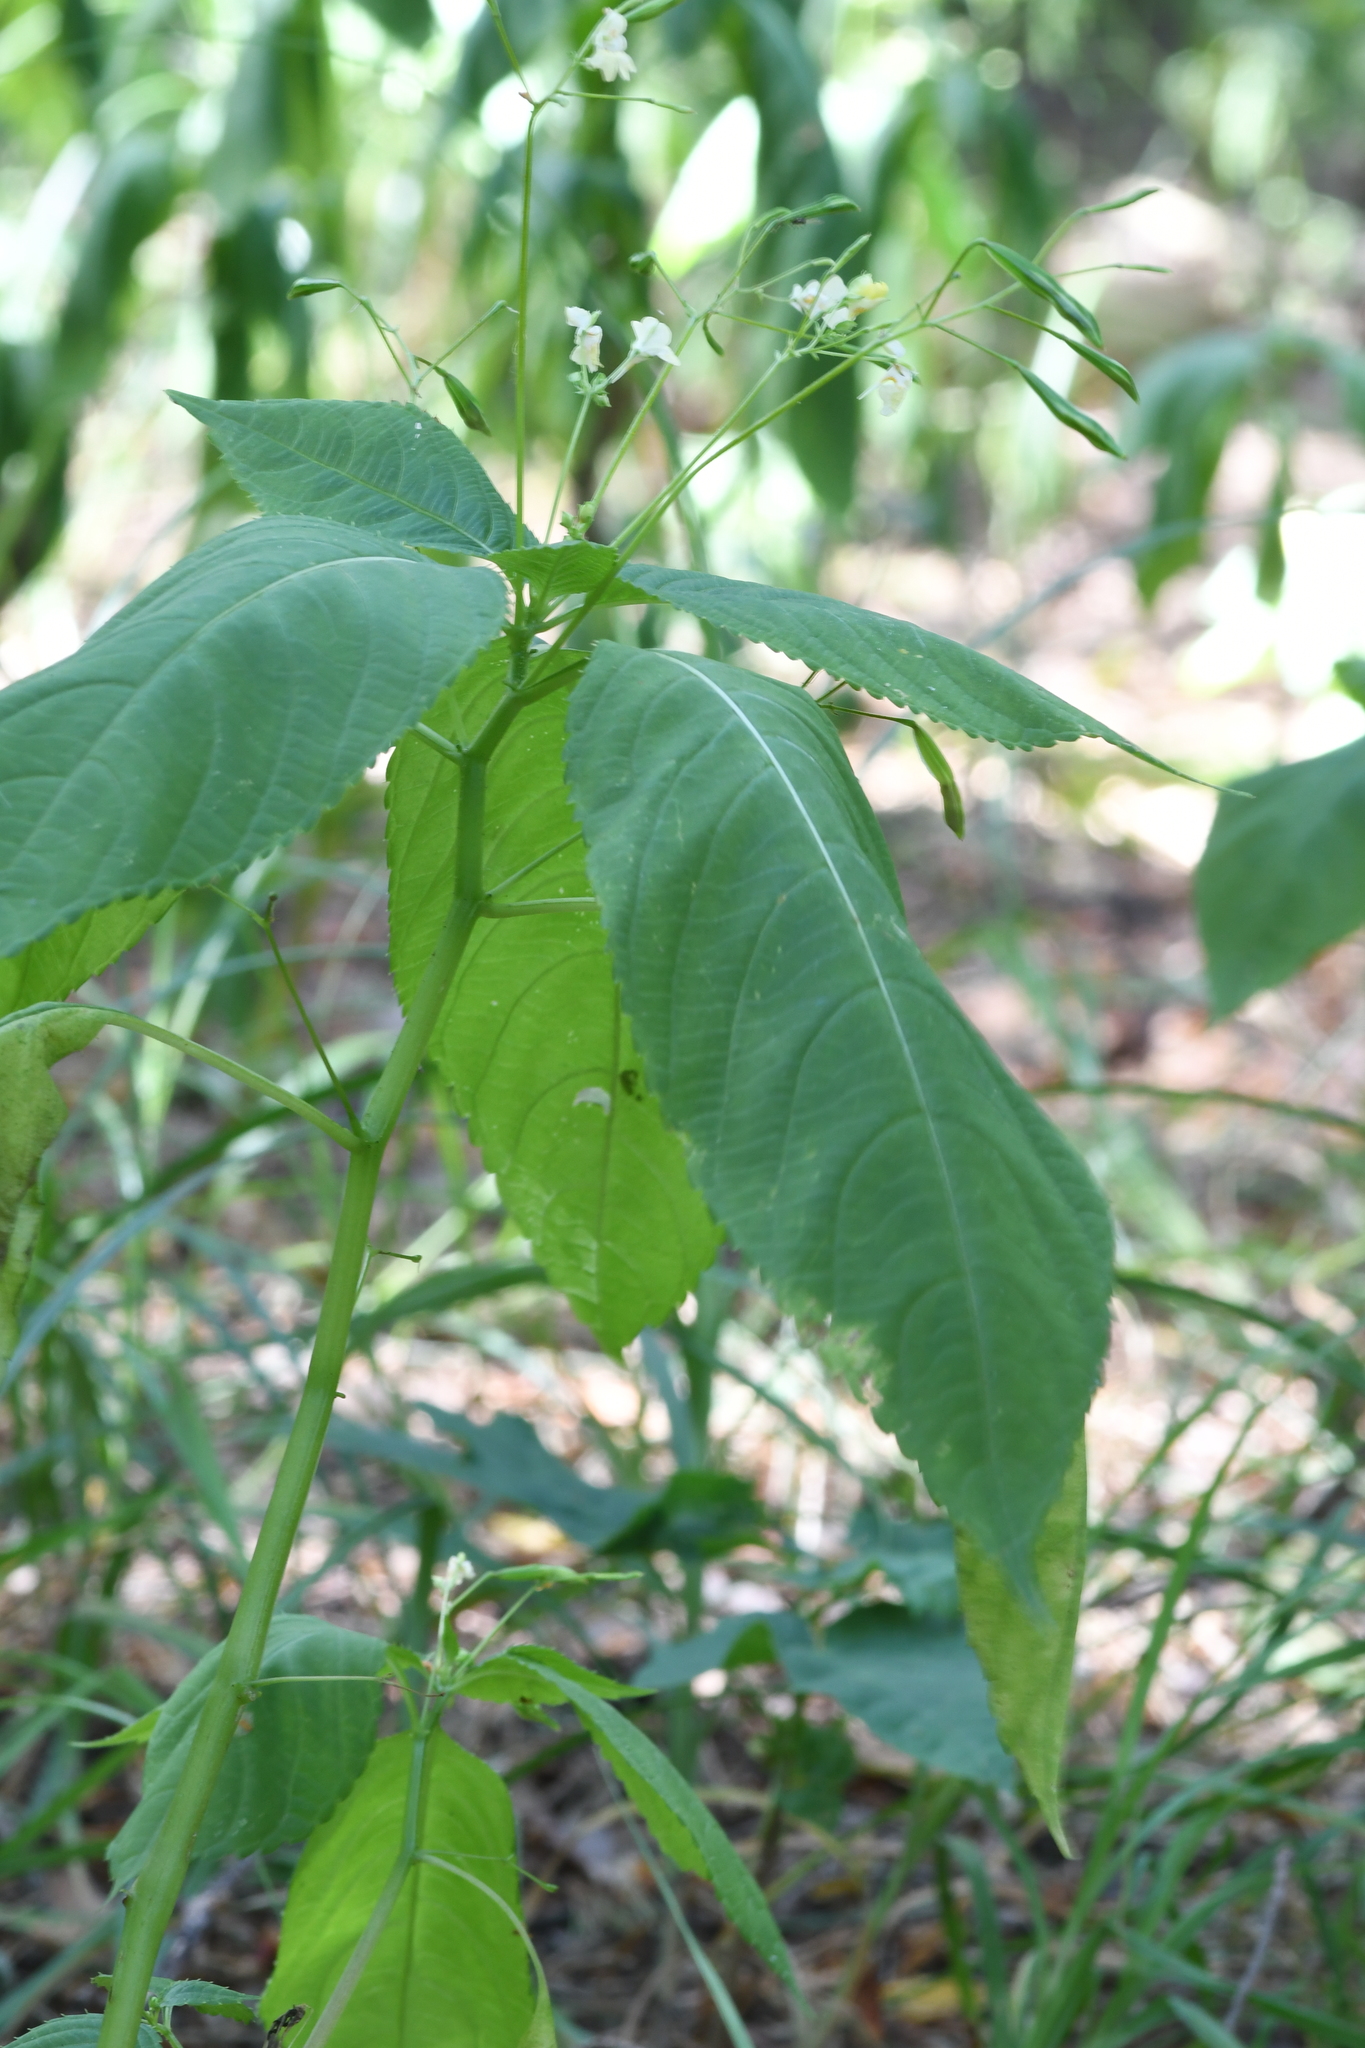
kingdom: Plantae
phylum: Tracheophyta
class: Magnoliopsida
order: Ericales
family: Balsaminaceae
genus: Impatiens
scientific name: Impatiens parviflora
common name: Small balsam
